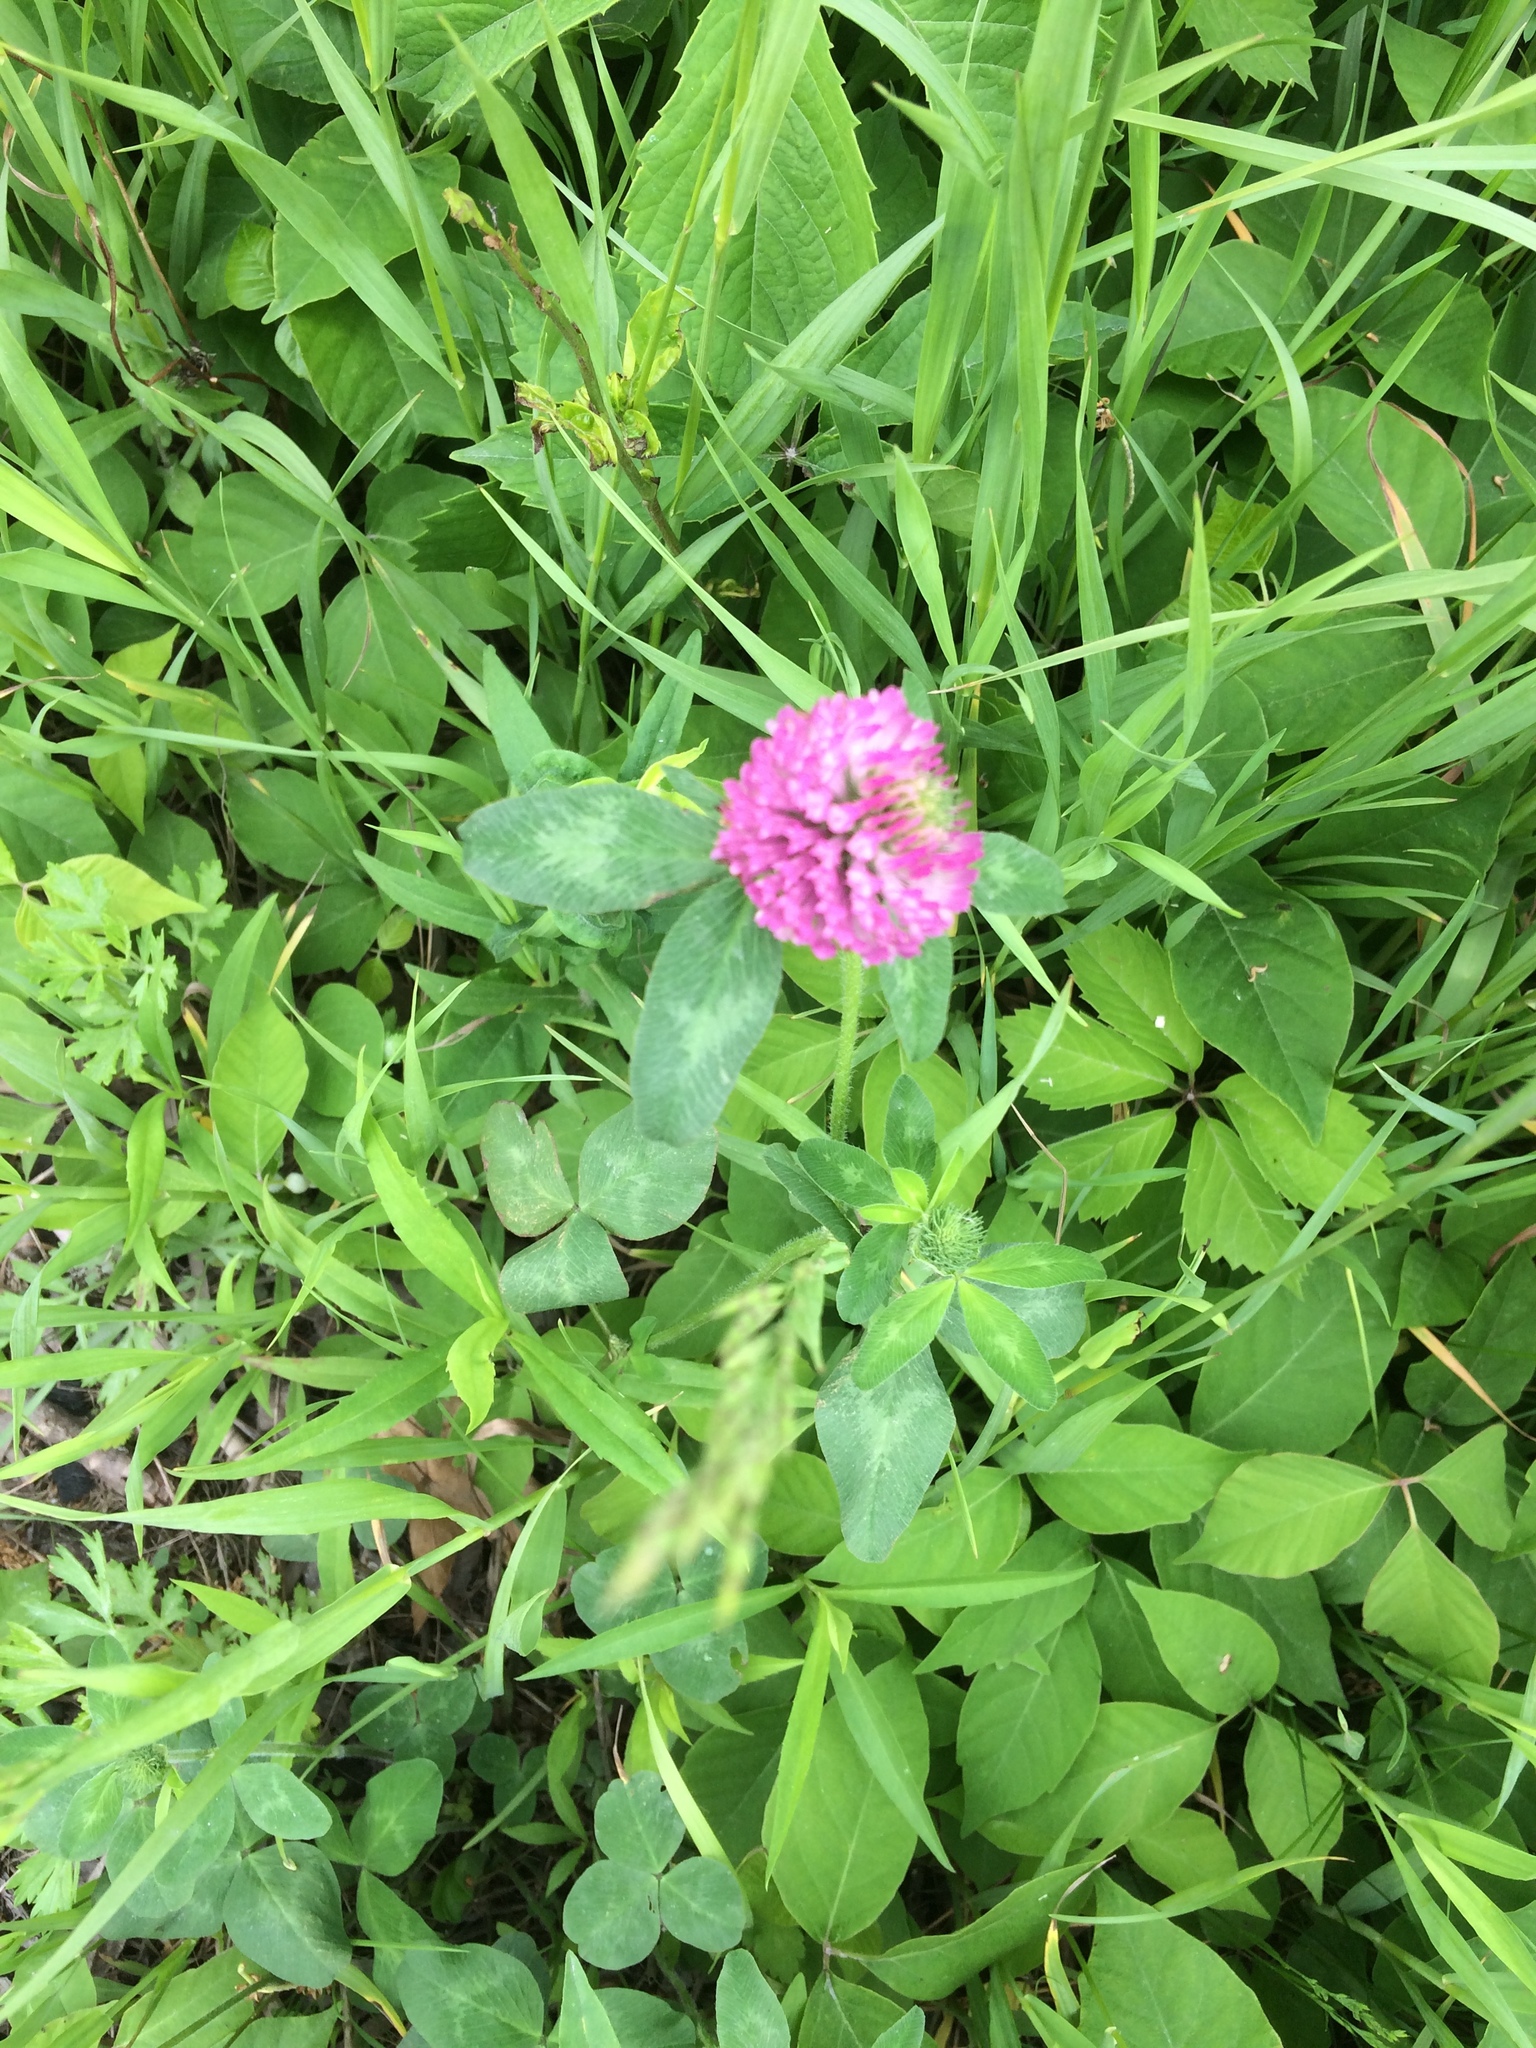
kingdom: Plantae
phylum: Tracheophyta
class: Magnoliopsida
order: Fabales
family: Fabaceae
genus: Trifolium
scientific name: Trifolium pratense
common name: Red clover
